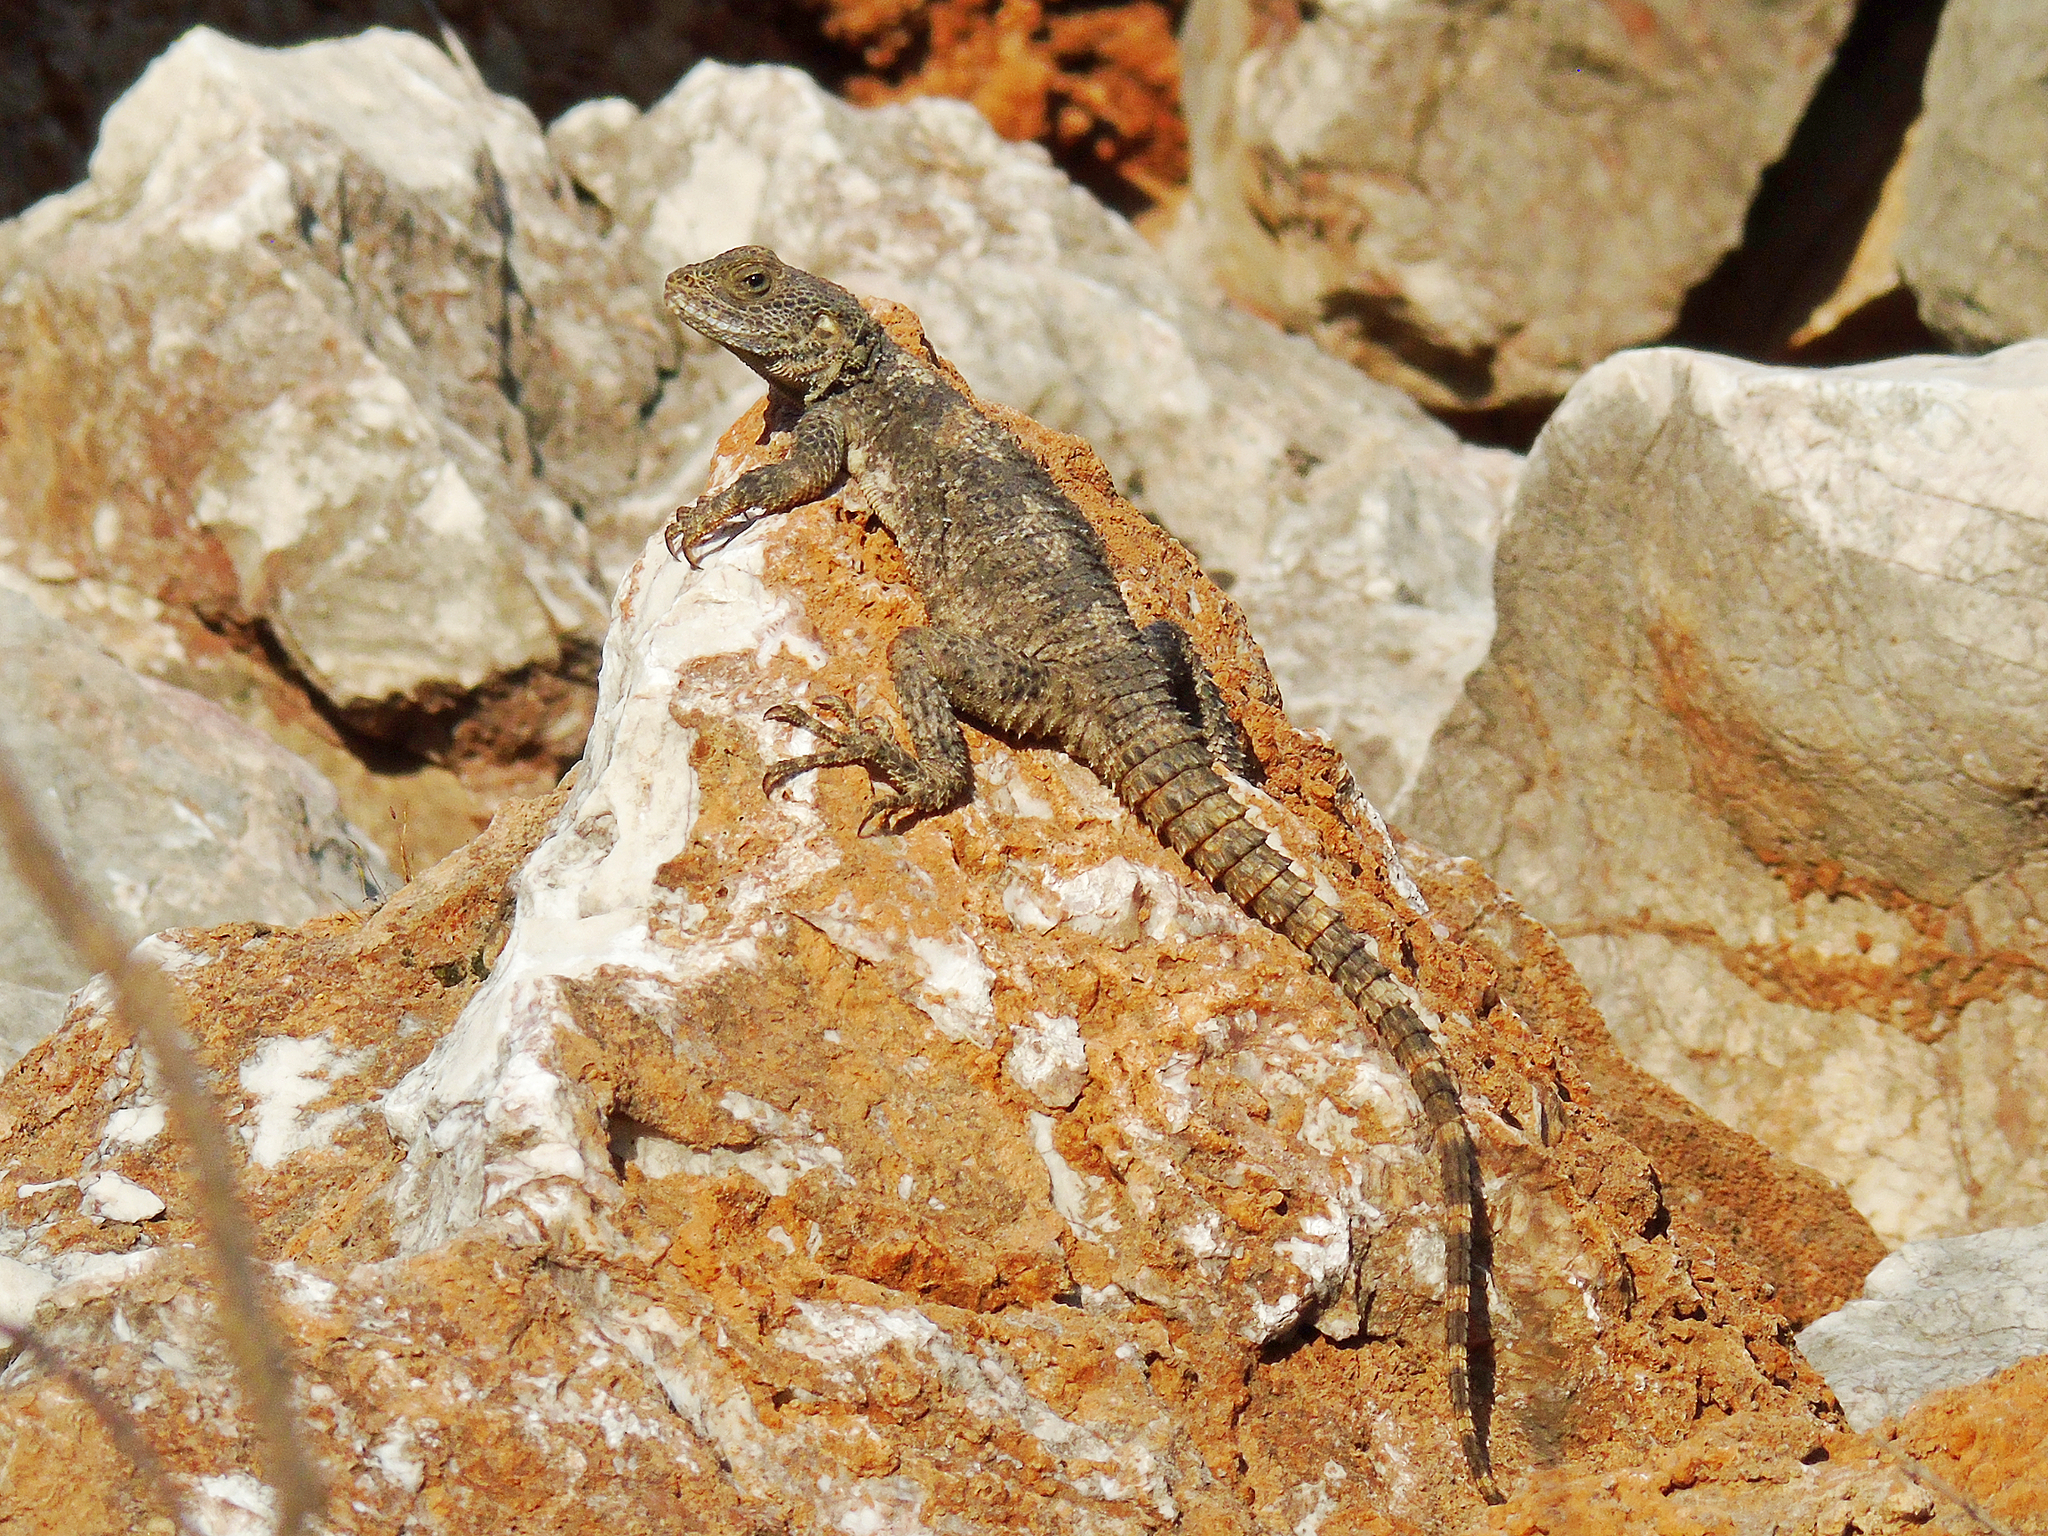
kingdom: Animalia
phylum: Chordata
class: Squamata
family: Agamidae
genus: Stellagama
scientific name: Stellagama stellio
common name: Starred agama
